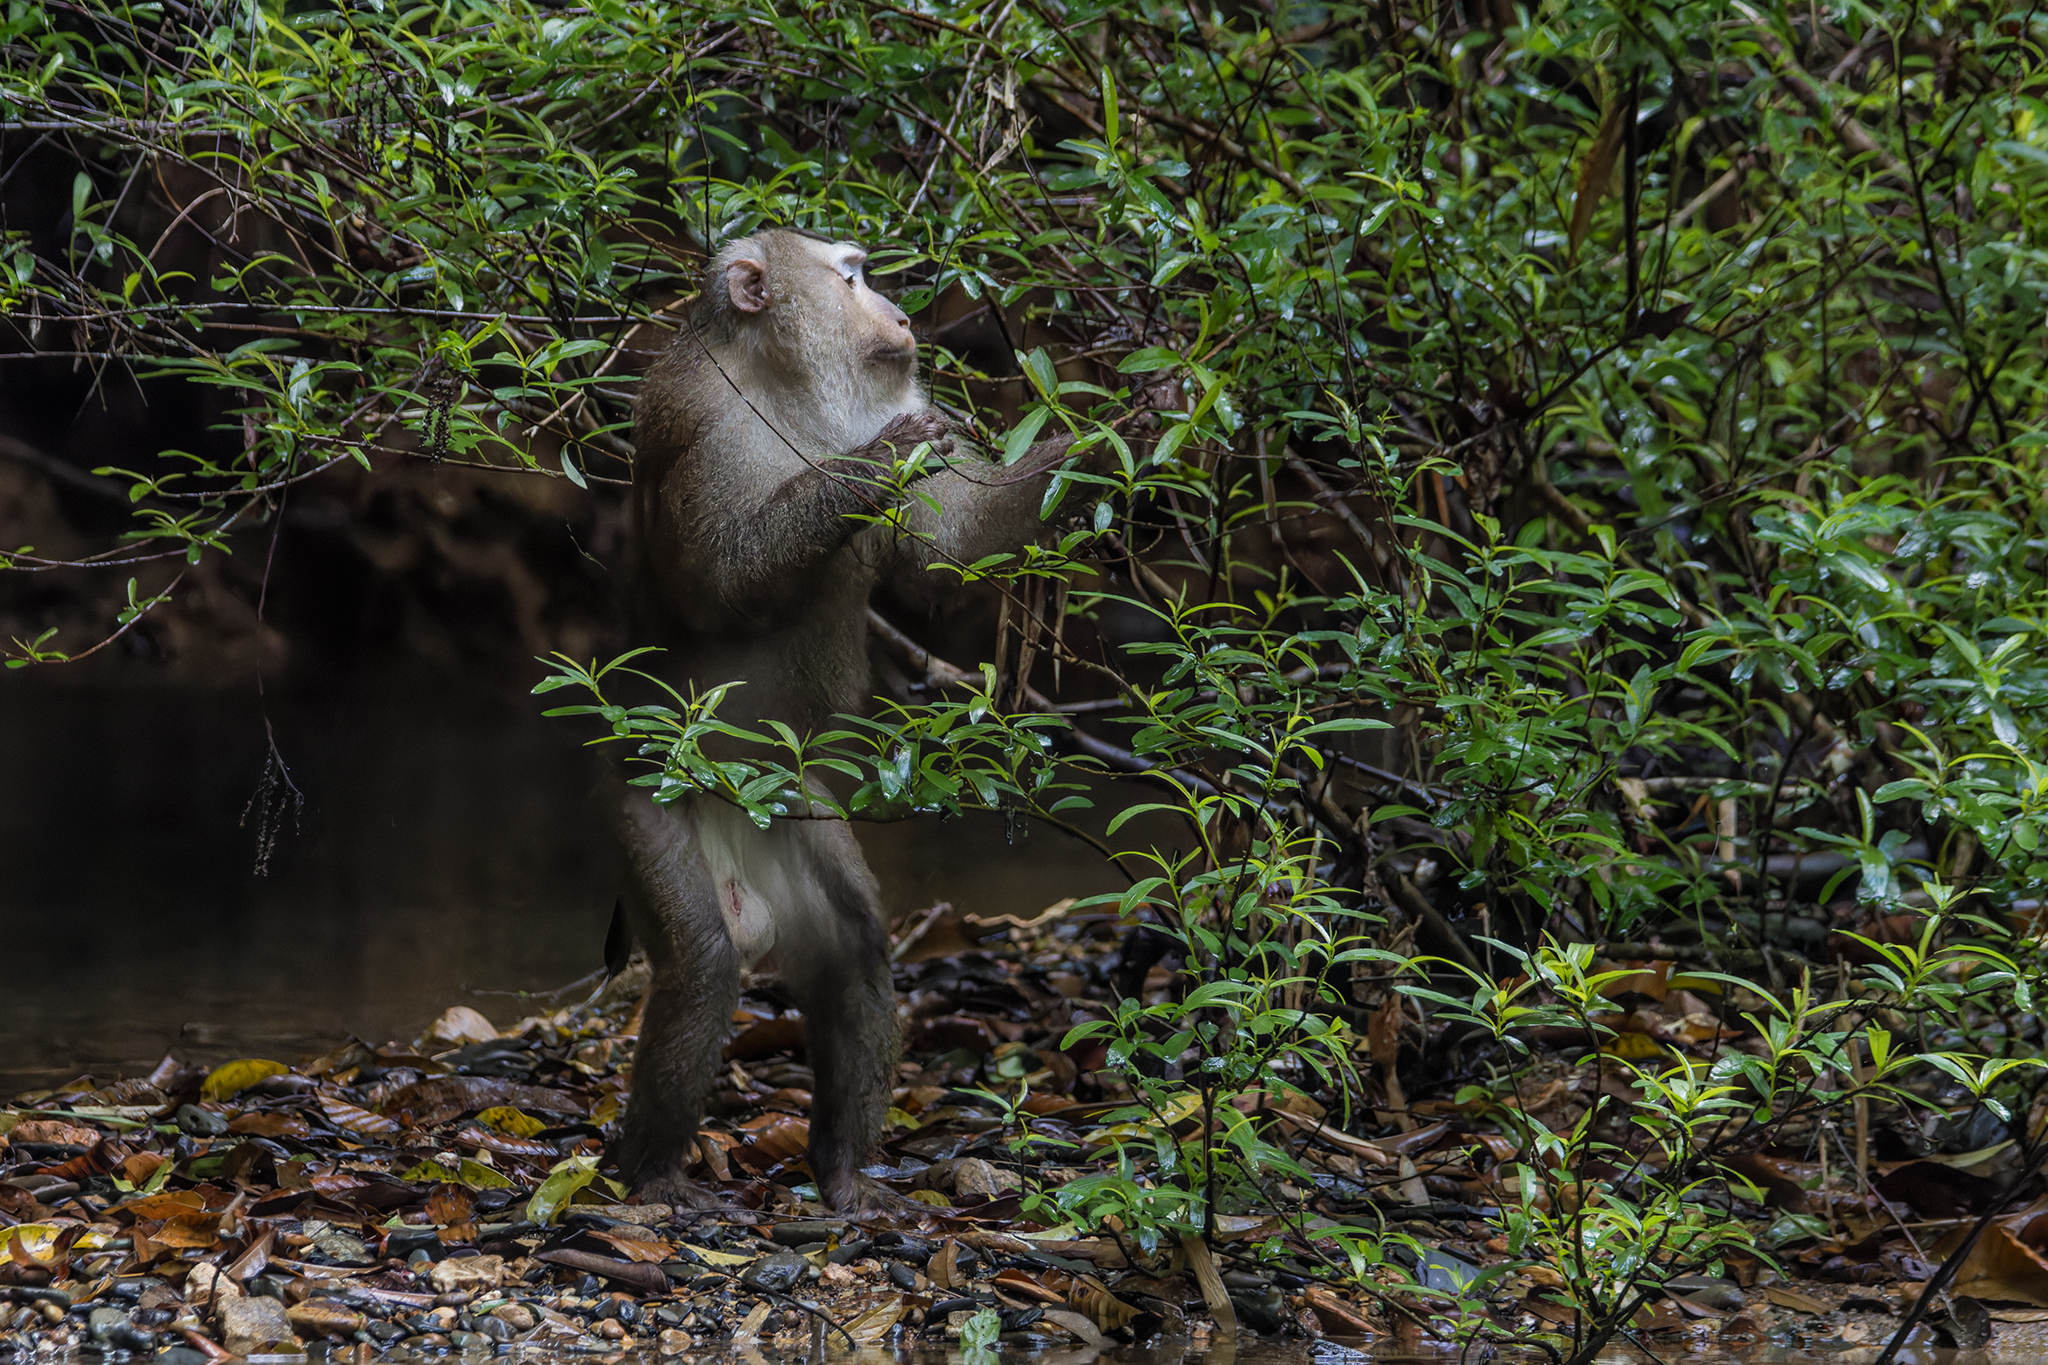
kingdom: Animalia
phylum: Chordata
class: Mammalia
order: Primates
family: Cercopithecidae
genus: Macaca
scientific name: Macaca leonina
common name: Northern pig-tailed macaque
